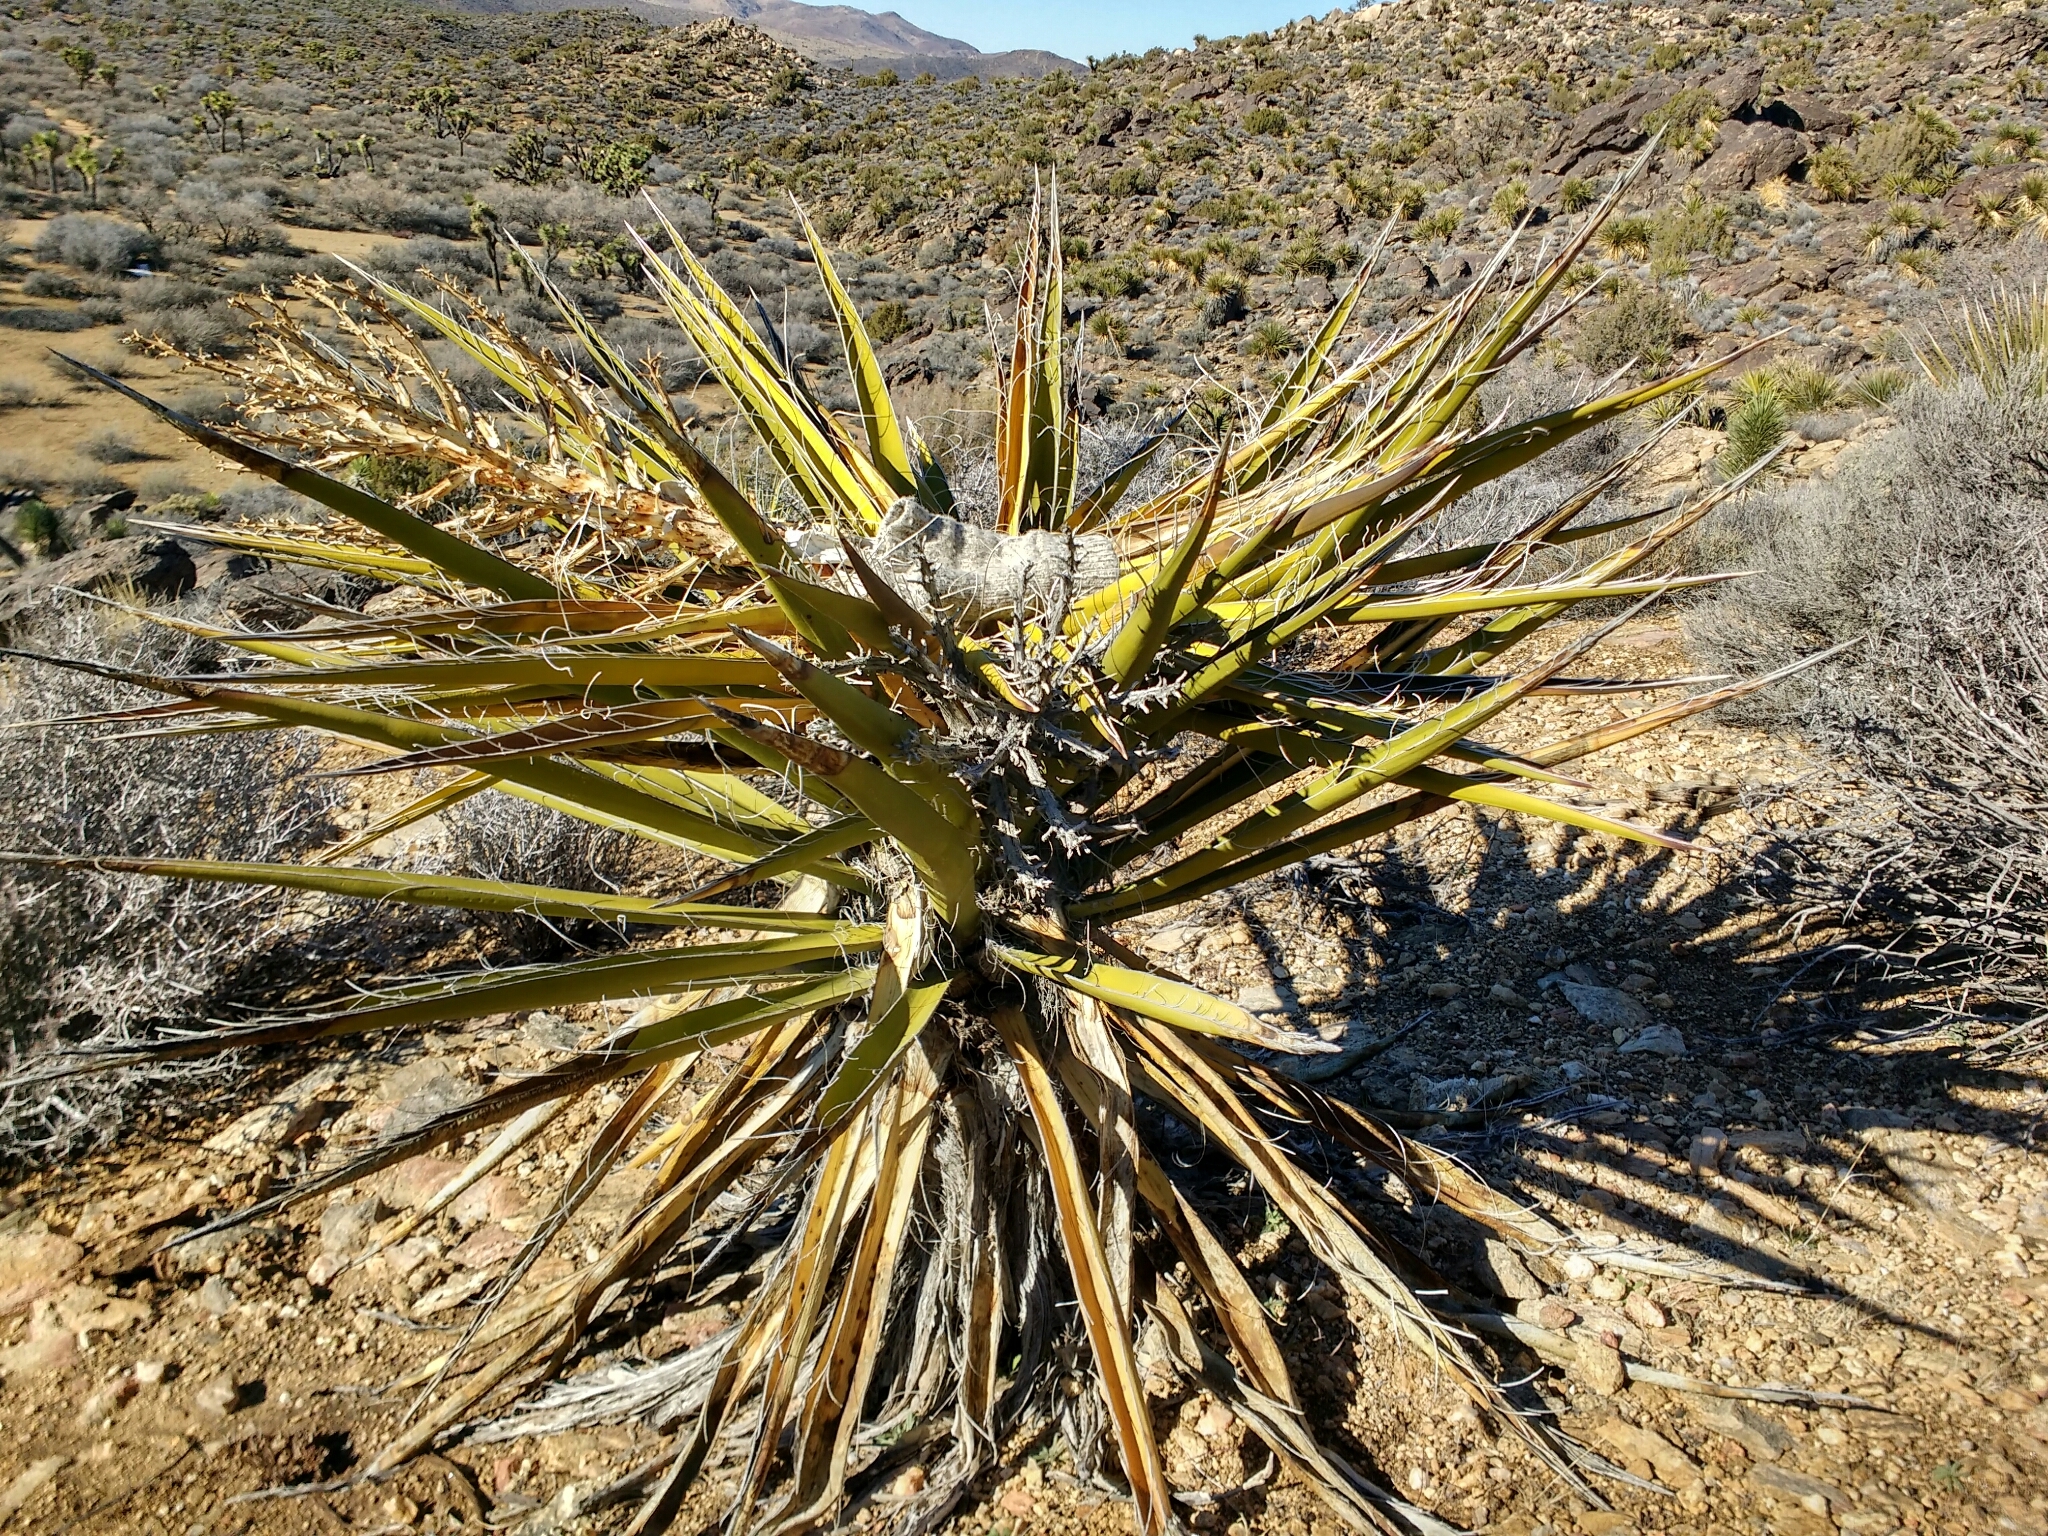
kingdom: Plantae
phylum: Tracheophyta
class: Liliopsida
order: Asparagales
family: Asparagaceae
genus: Yucca
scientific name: Yucca schidigera
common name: Mojave yucca
